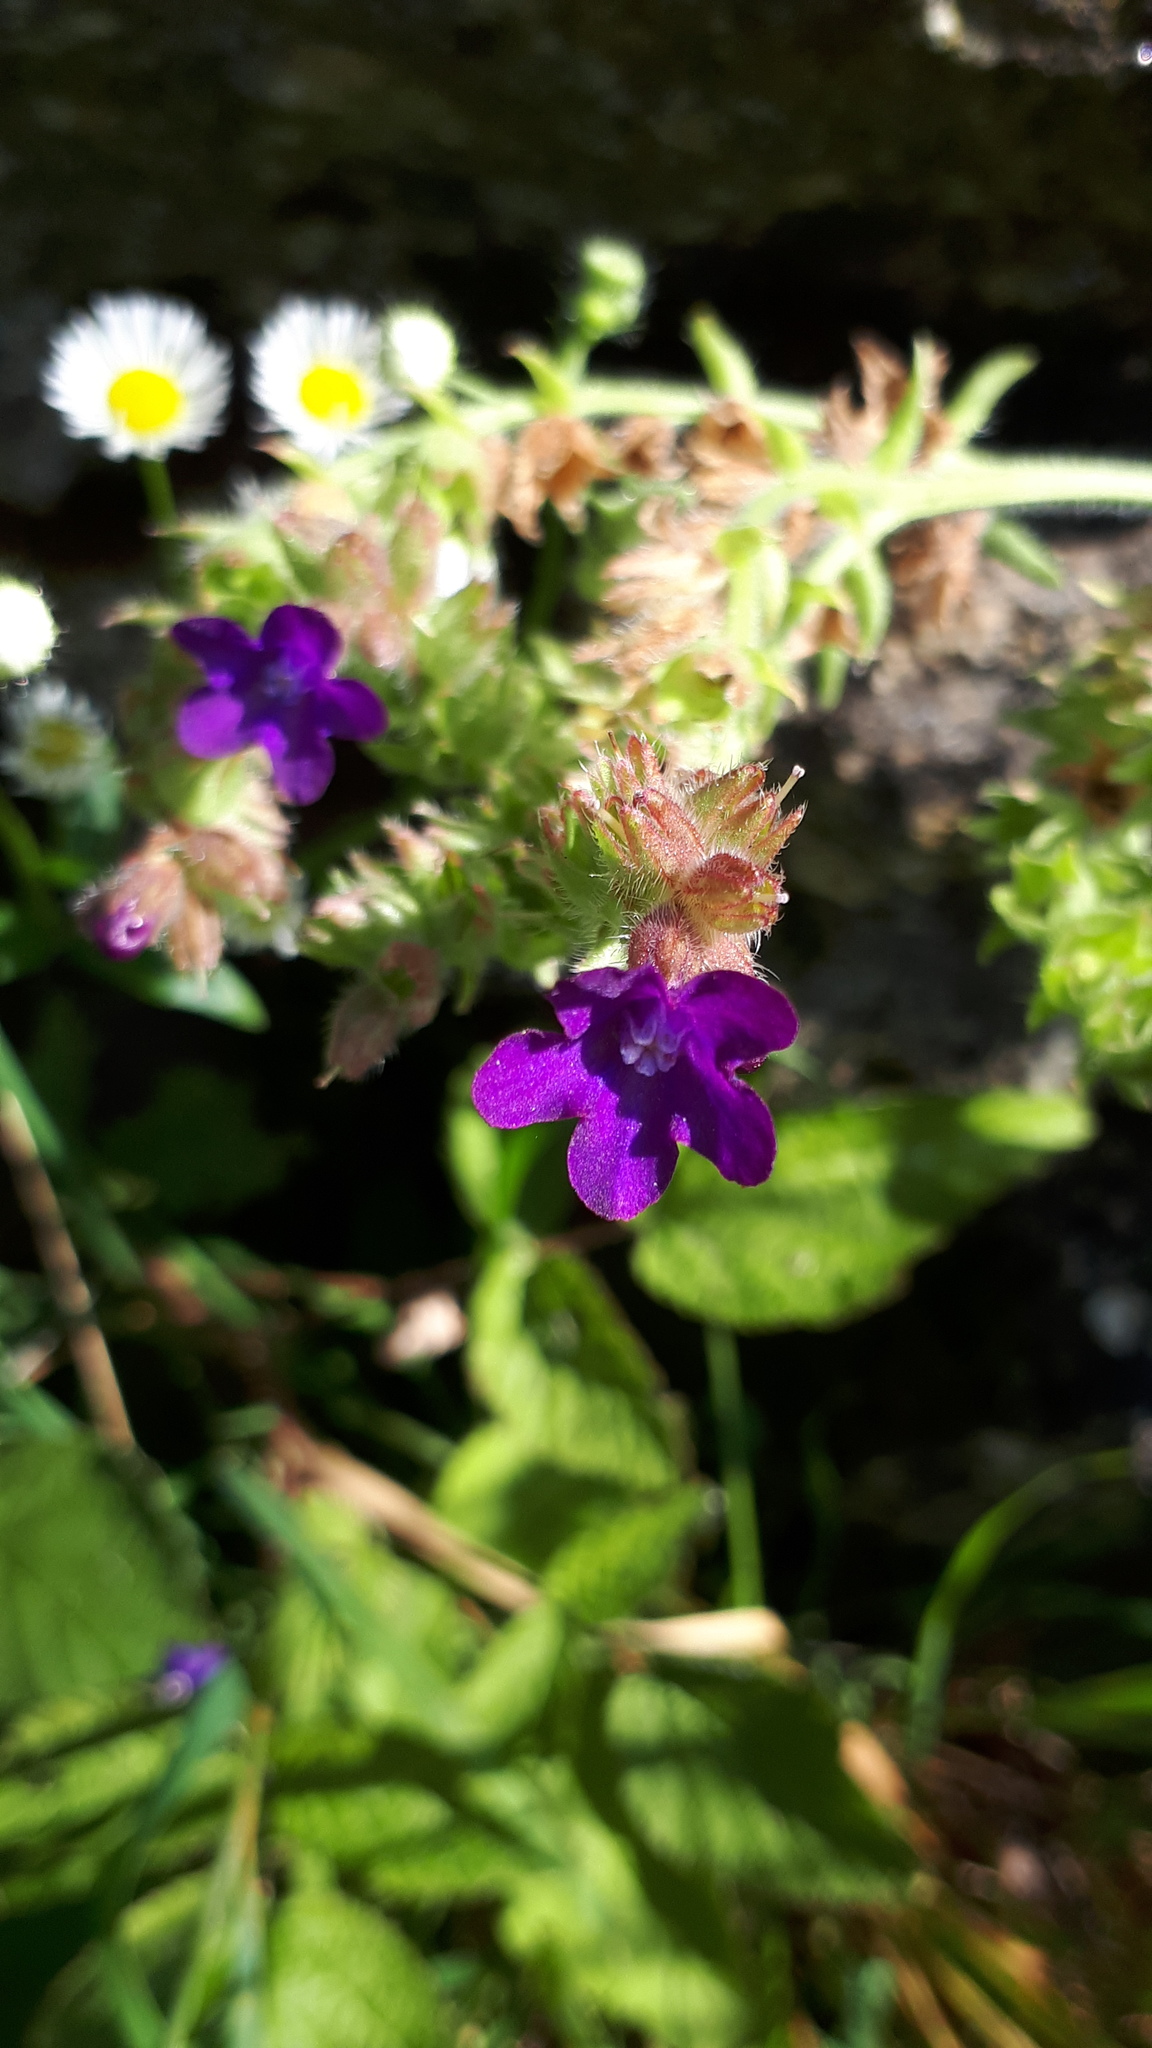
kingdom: Plantae
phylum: Tracheophyta
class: Magnoliopsida
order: Boraginales
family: Boraginaceae
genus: Anchusa
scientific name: Anchusa officinalis
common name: Alkanet
